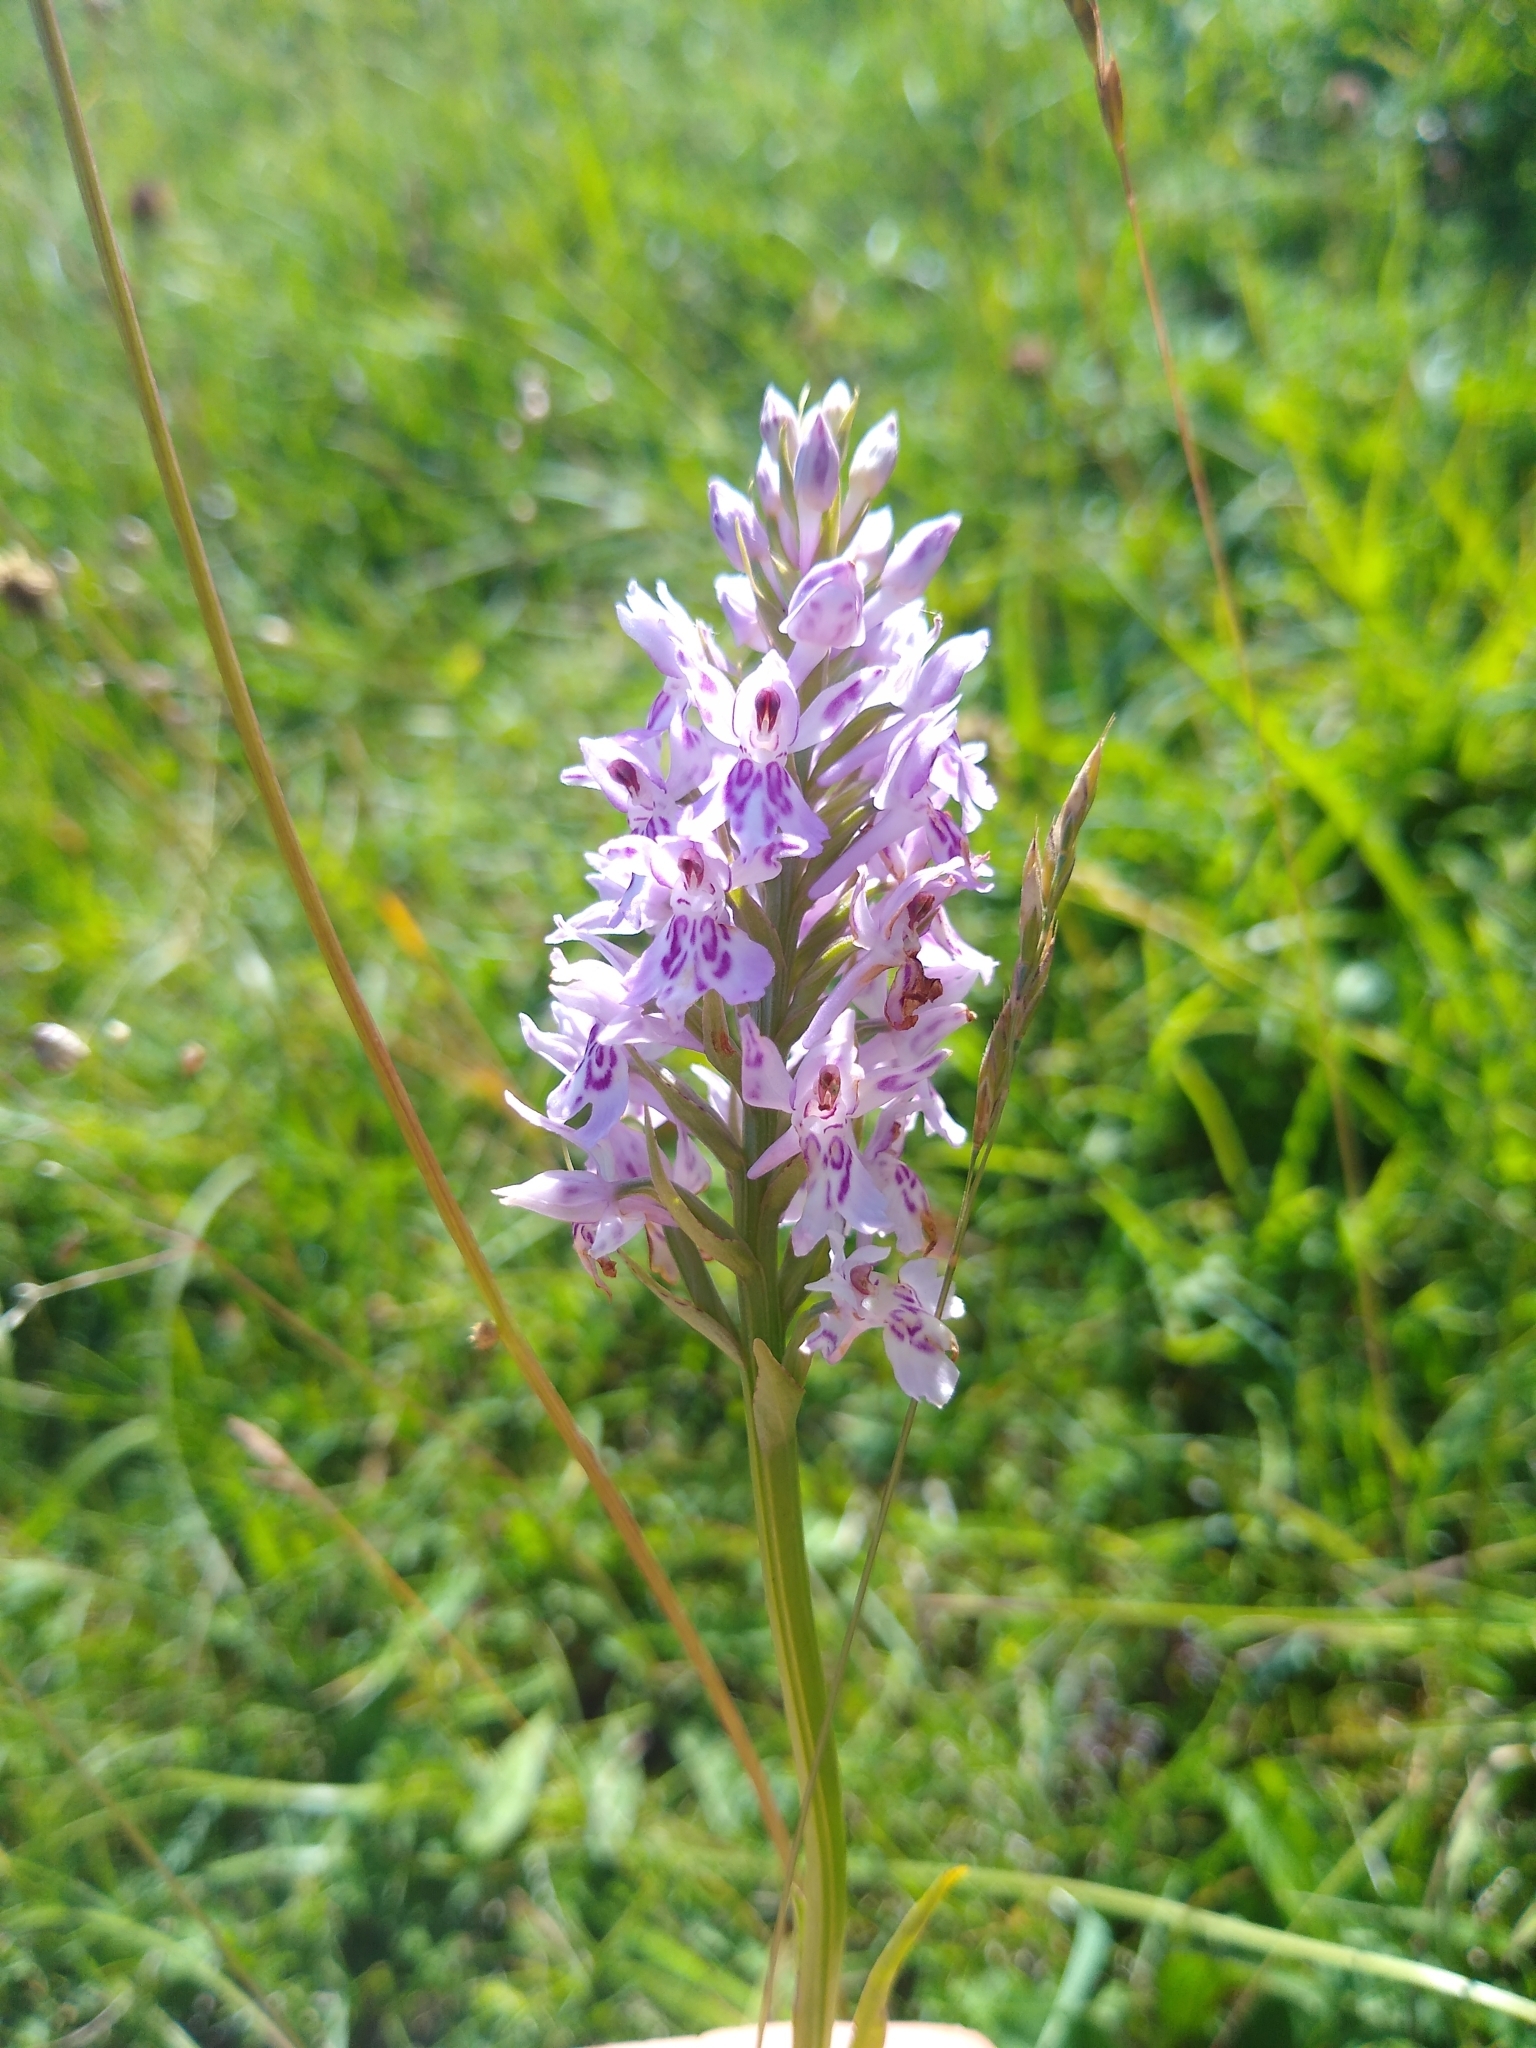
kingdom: Plantae
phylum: Tracheophyta
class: Liliopsida
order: Asparagales
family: Orchidaceae
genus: Dactylorhiza
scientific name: Dactylorhiza maculata
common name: Heath spotted-orchid
